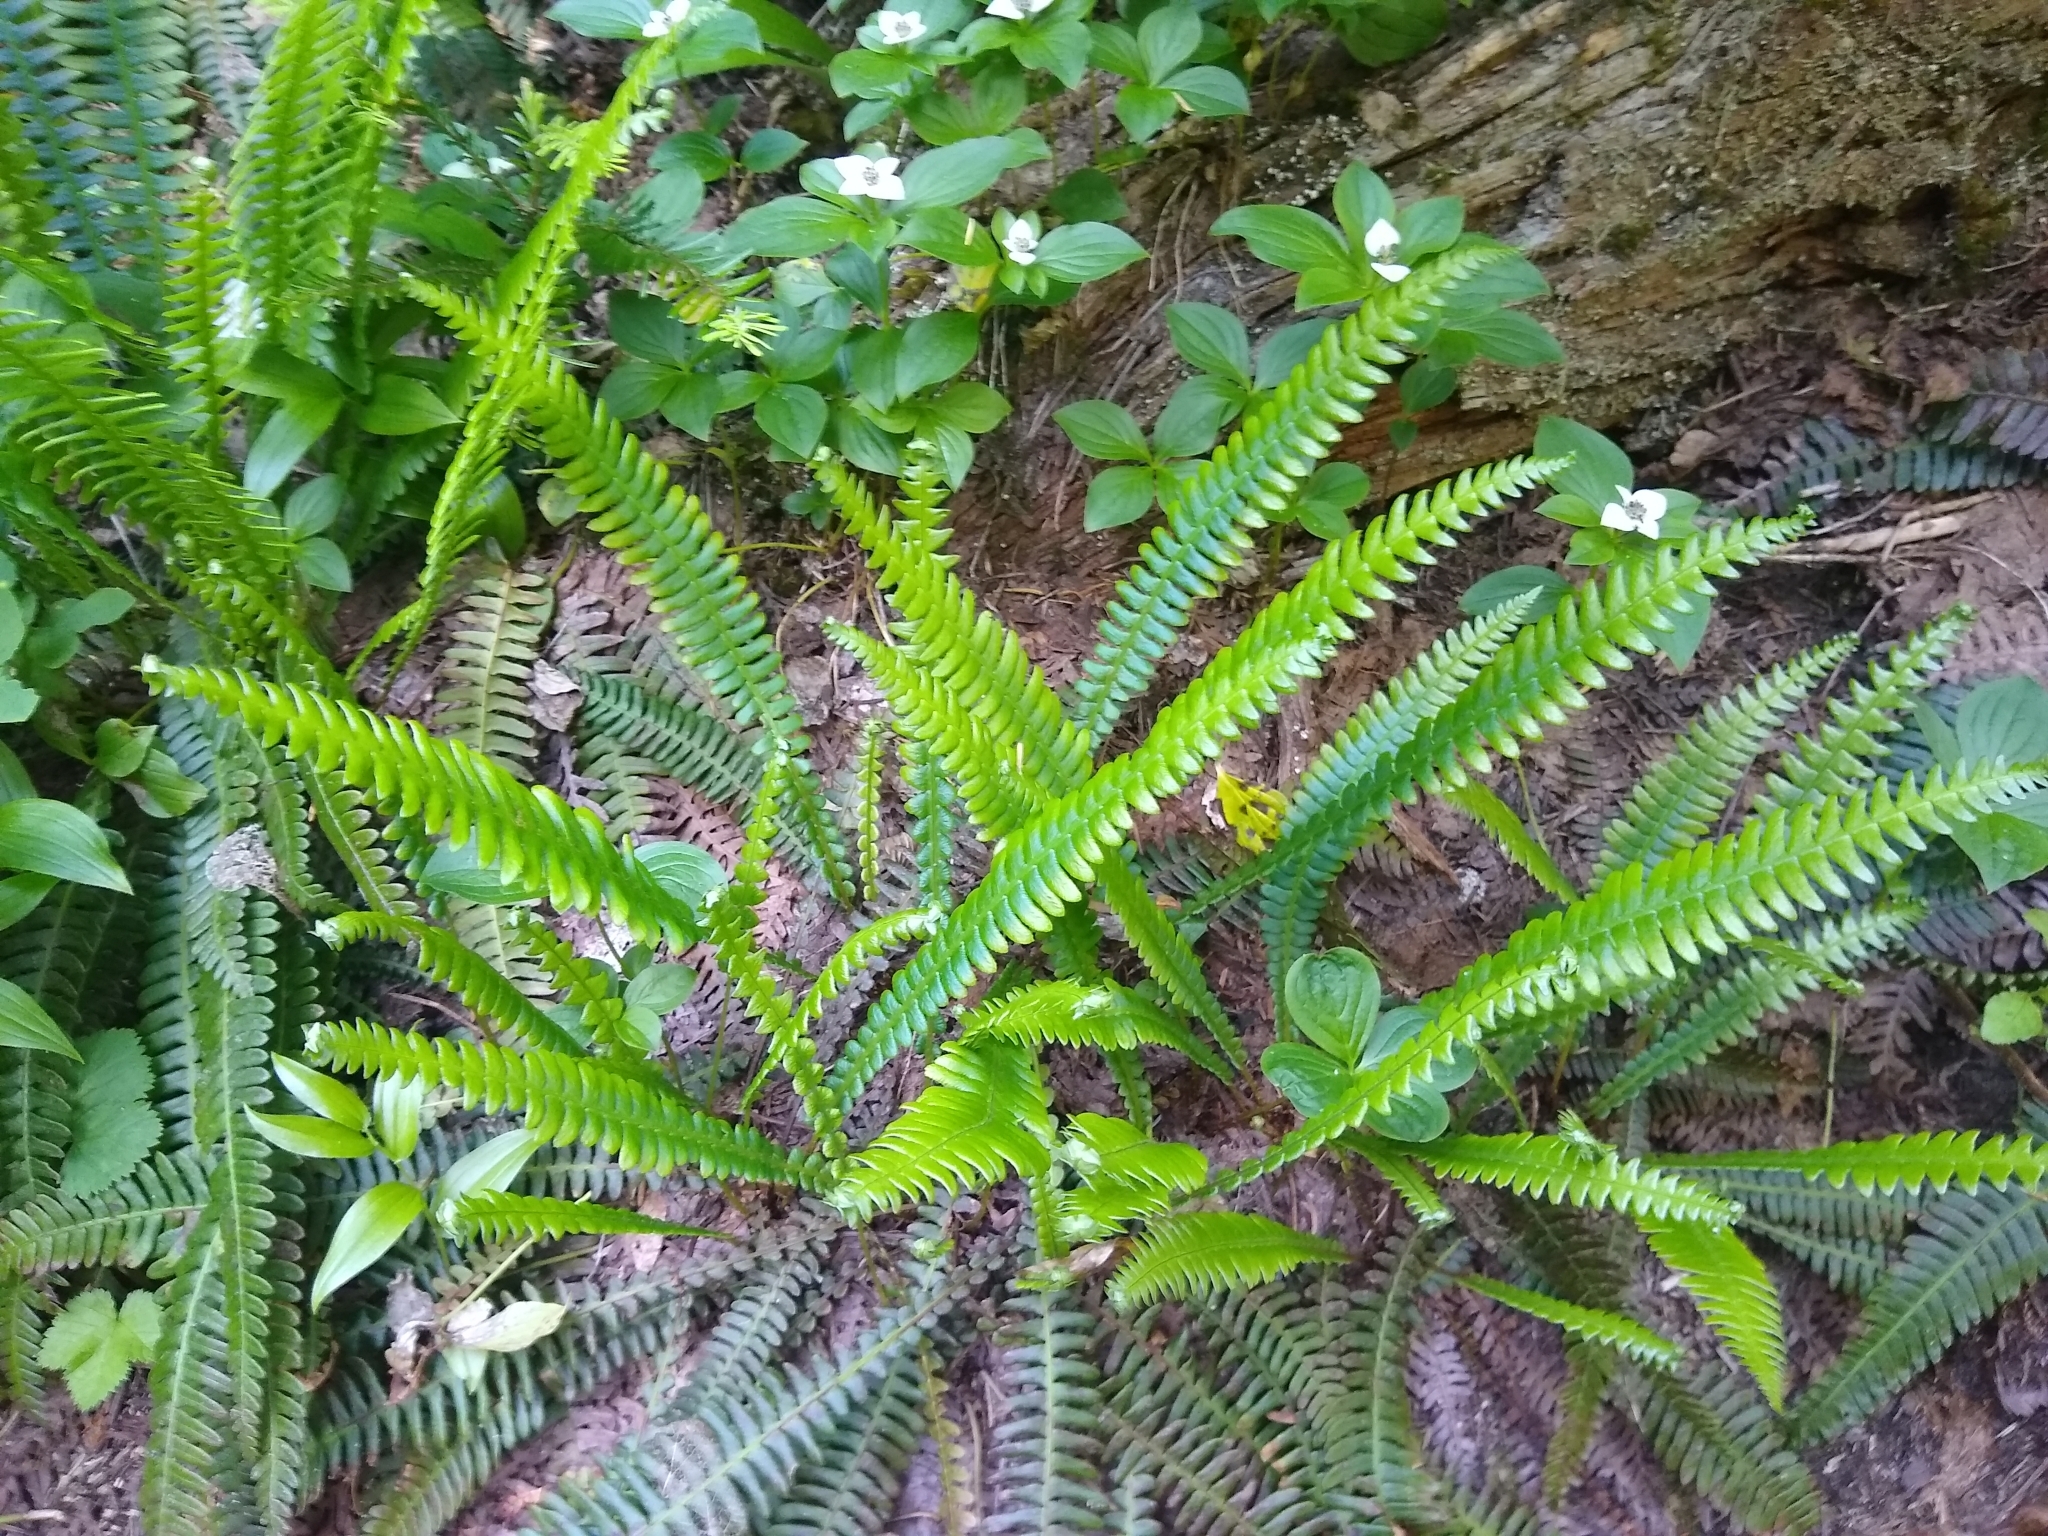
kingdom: Plantae
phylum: Tracheophyta
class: Polypodiopsida
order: Polypodiales
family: Blechnaceae
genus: Struthiopteris
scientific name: Struthiopteris spicant
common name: Deer fern
